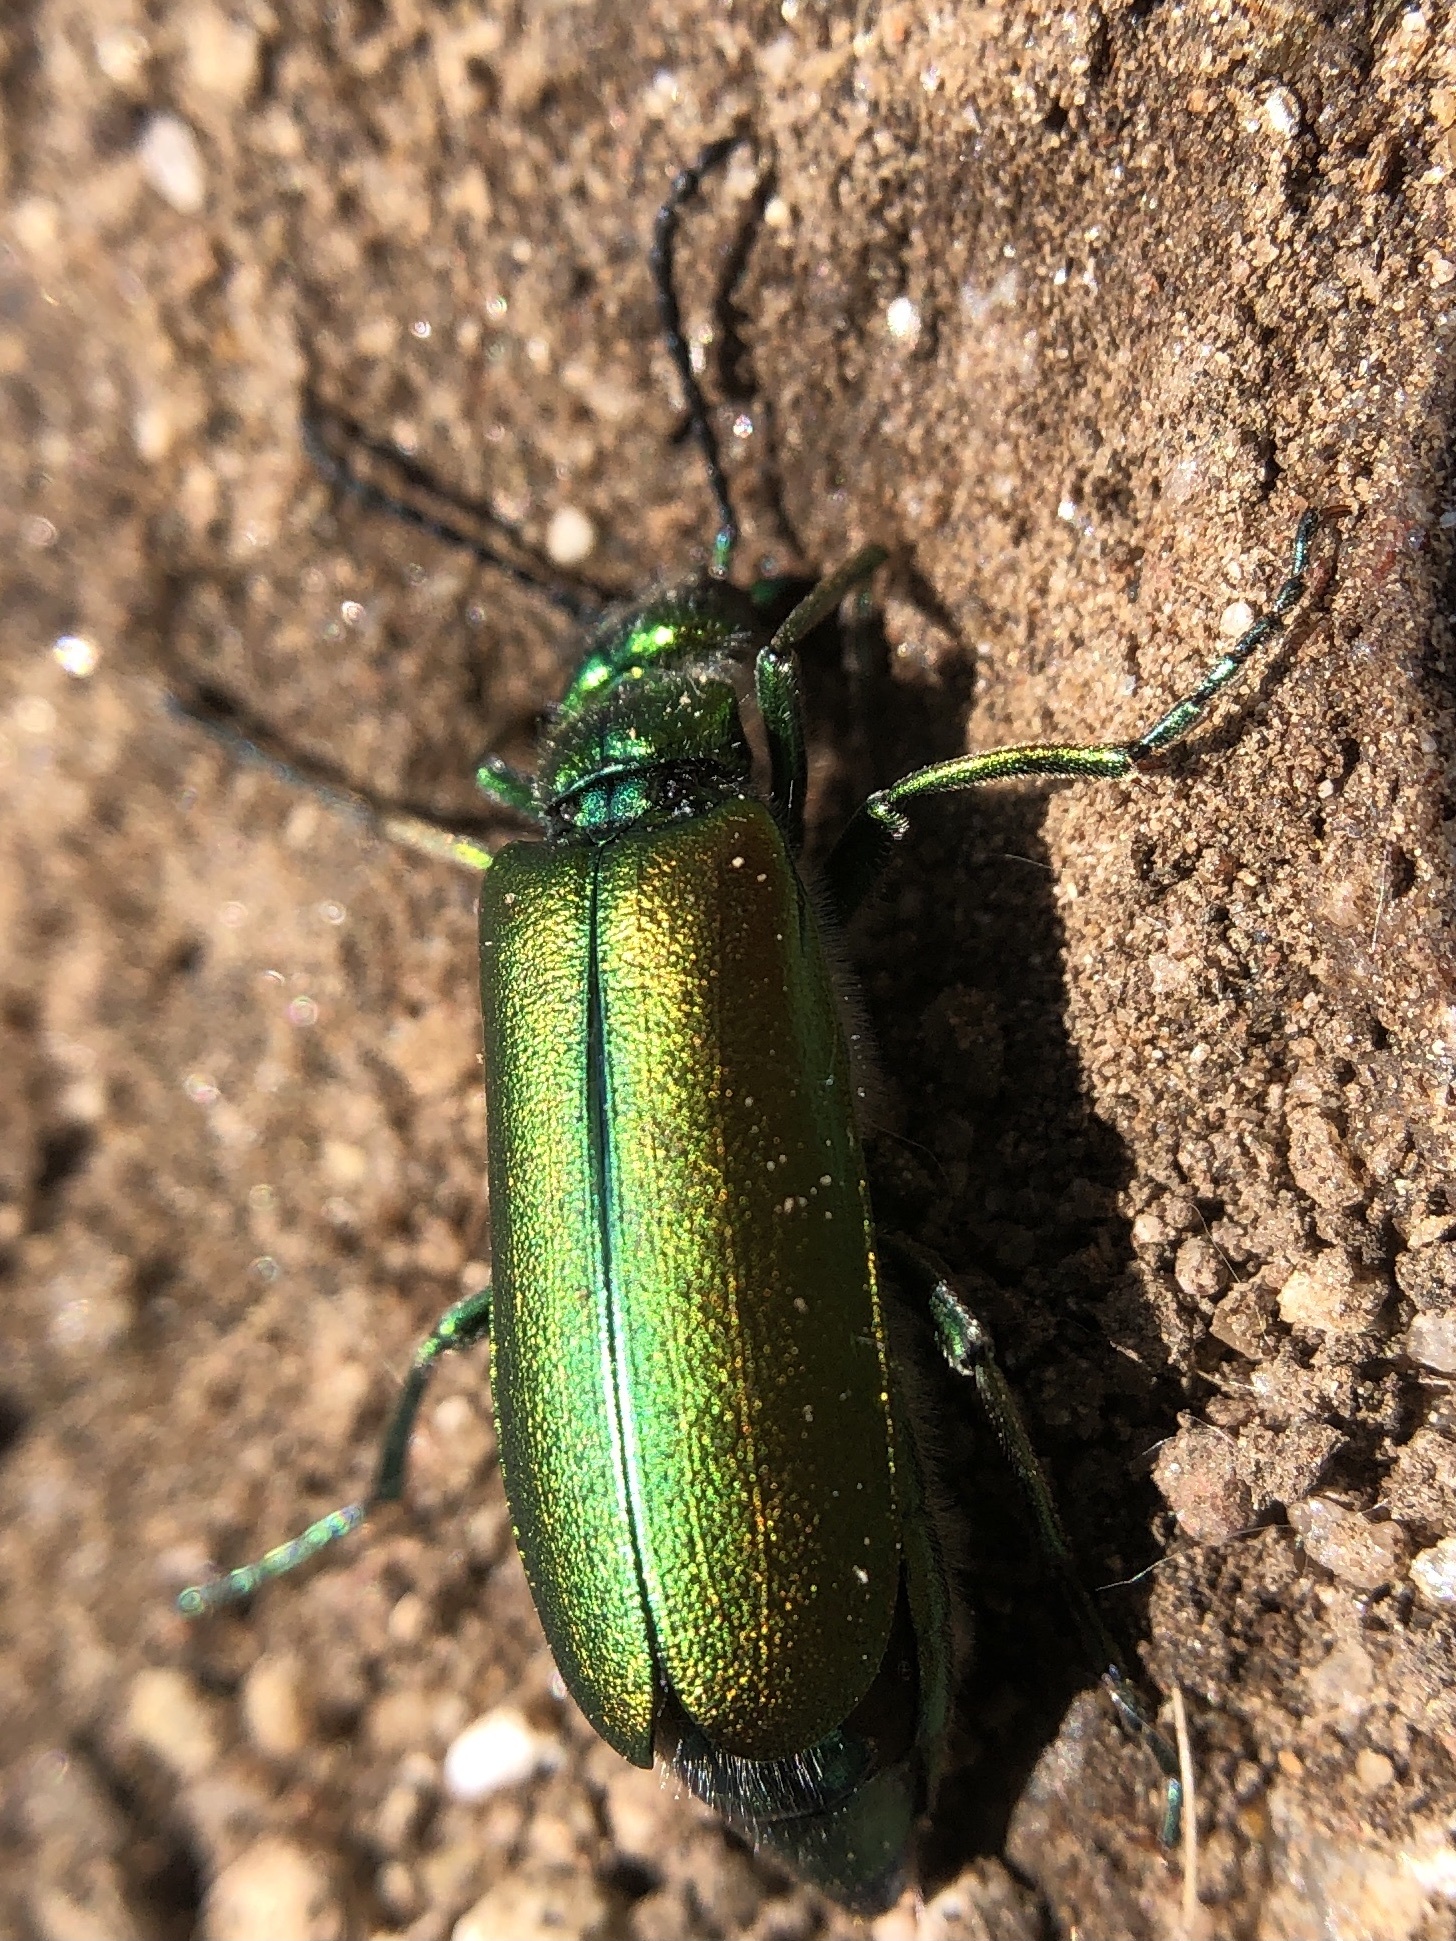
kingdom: Animalia
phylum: Arthropoda
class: Insecta
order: Coleoptera
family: Meloidae
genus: Lytta
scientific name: Lytta vesicatoria
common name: Spanish fly
